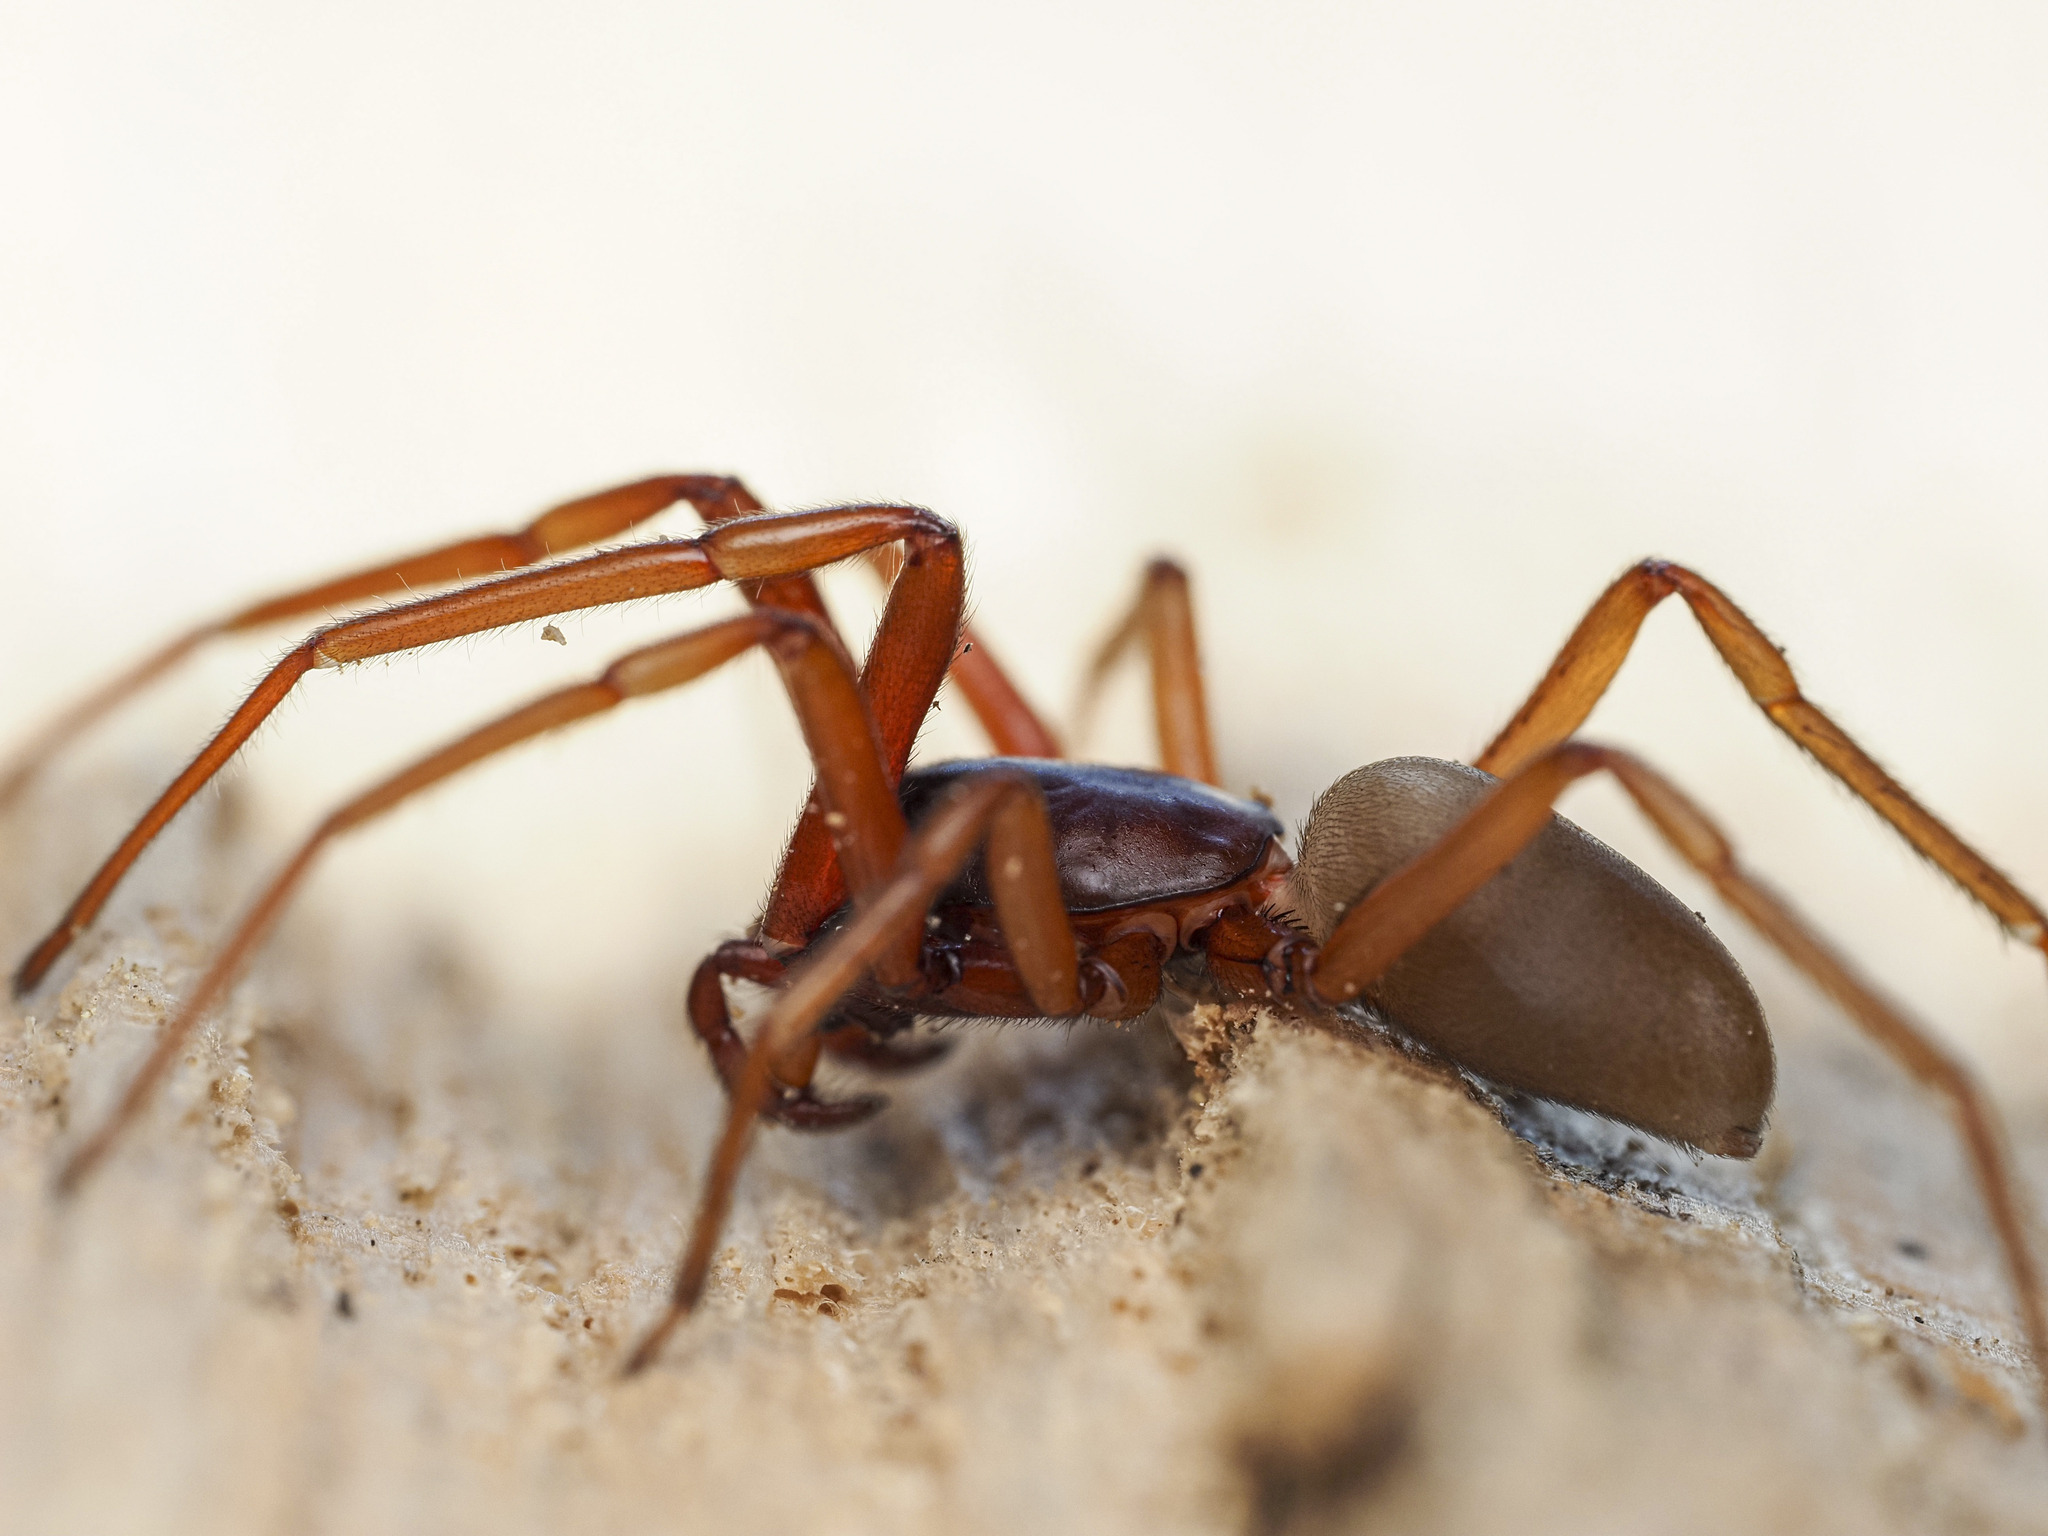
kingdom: Animalia
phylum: Arthropoda
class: Arachnida
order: Araneae
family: Dysderidae
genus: Harpactea
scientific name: Harpactea rubicunda
